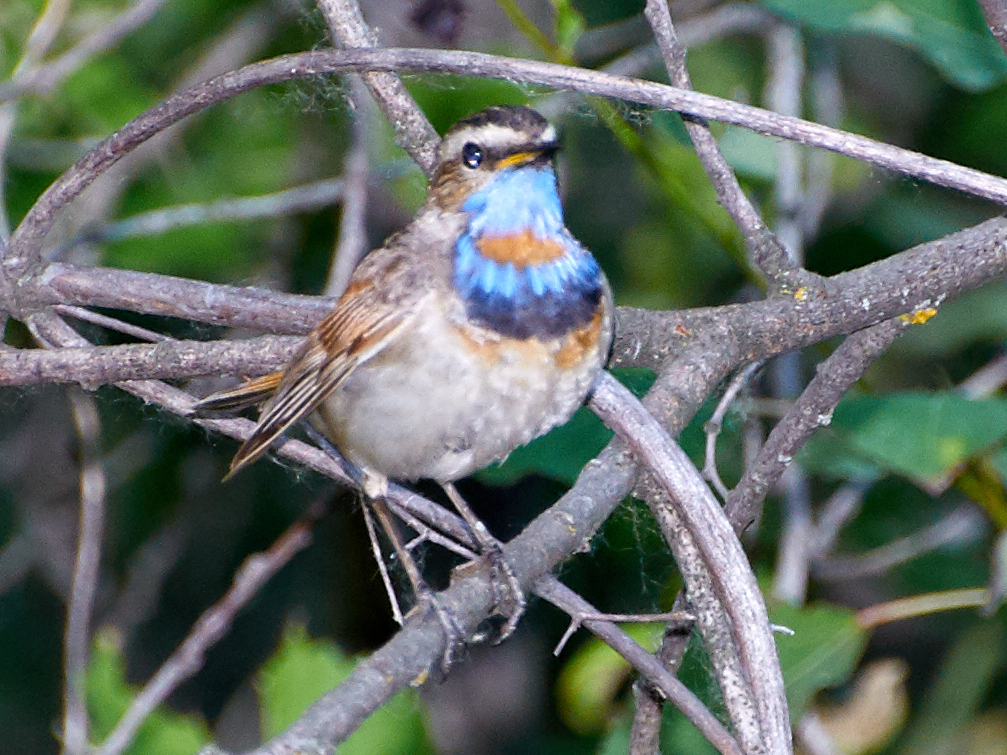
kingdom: Animalia
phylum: Chordata
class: Aves
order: Passeriformes
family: Muscicapidae
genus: Luscinia
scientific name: Luscinia svecica
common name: Bluethroat
